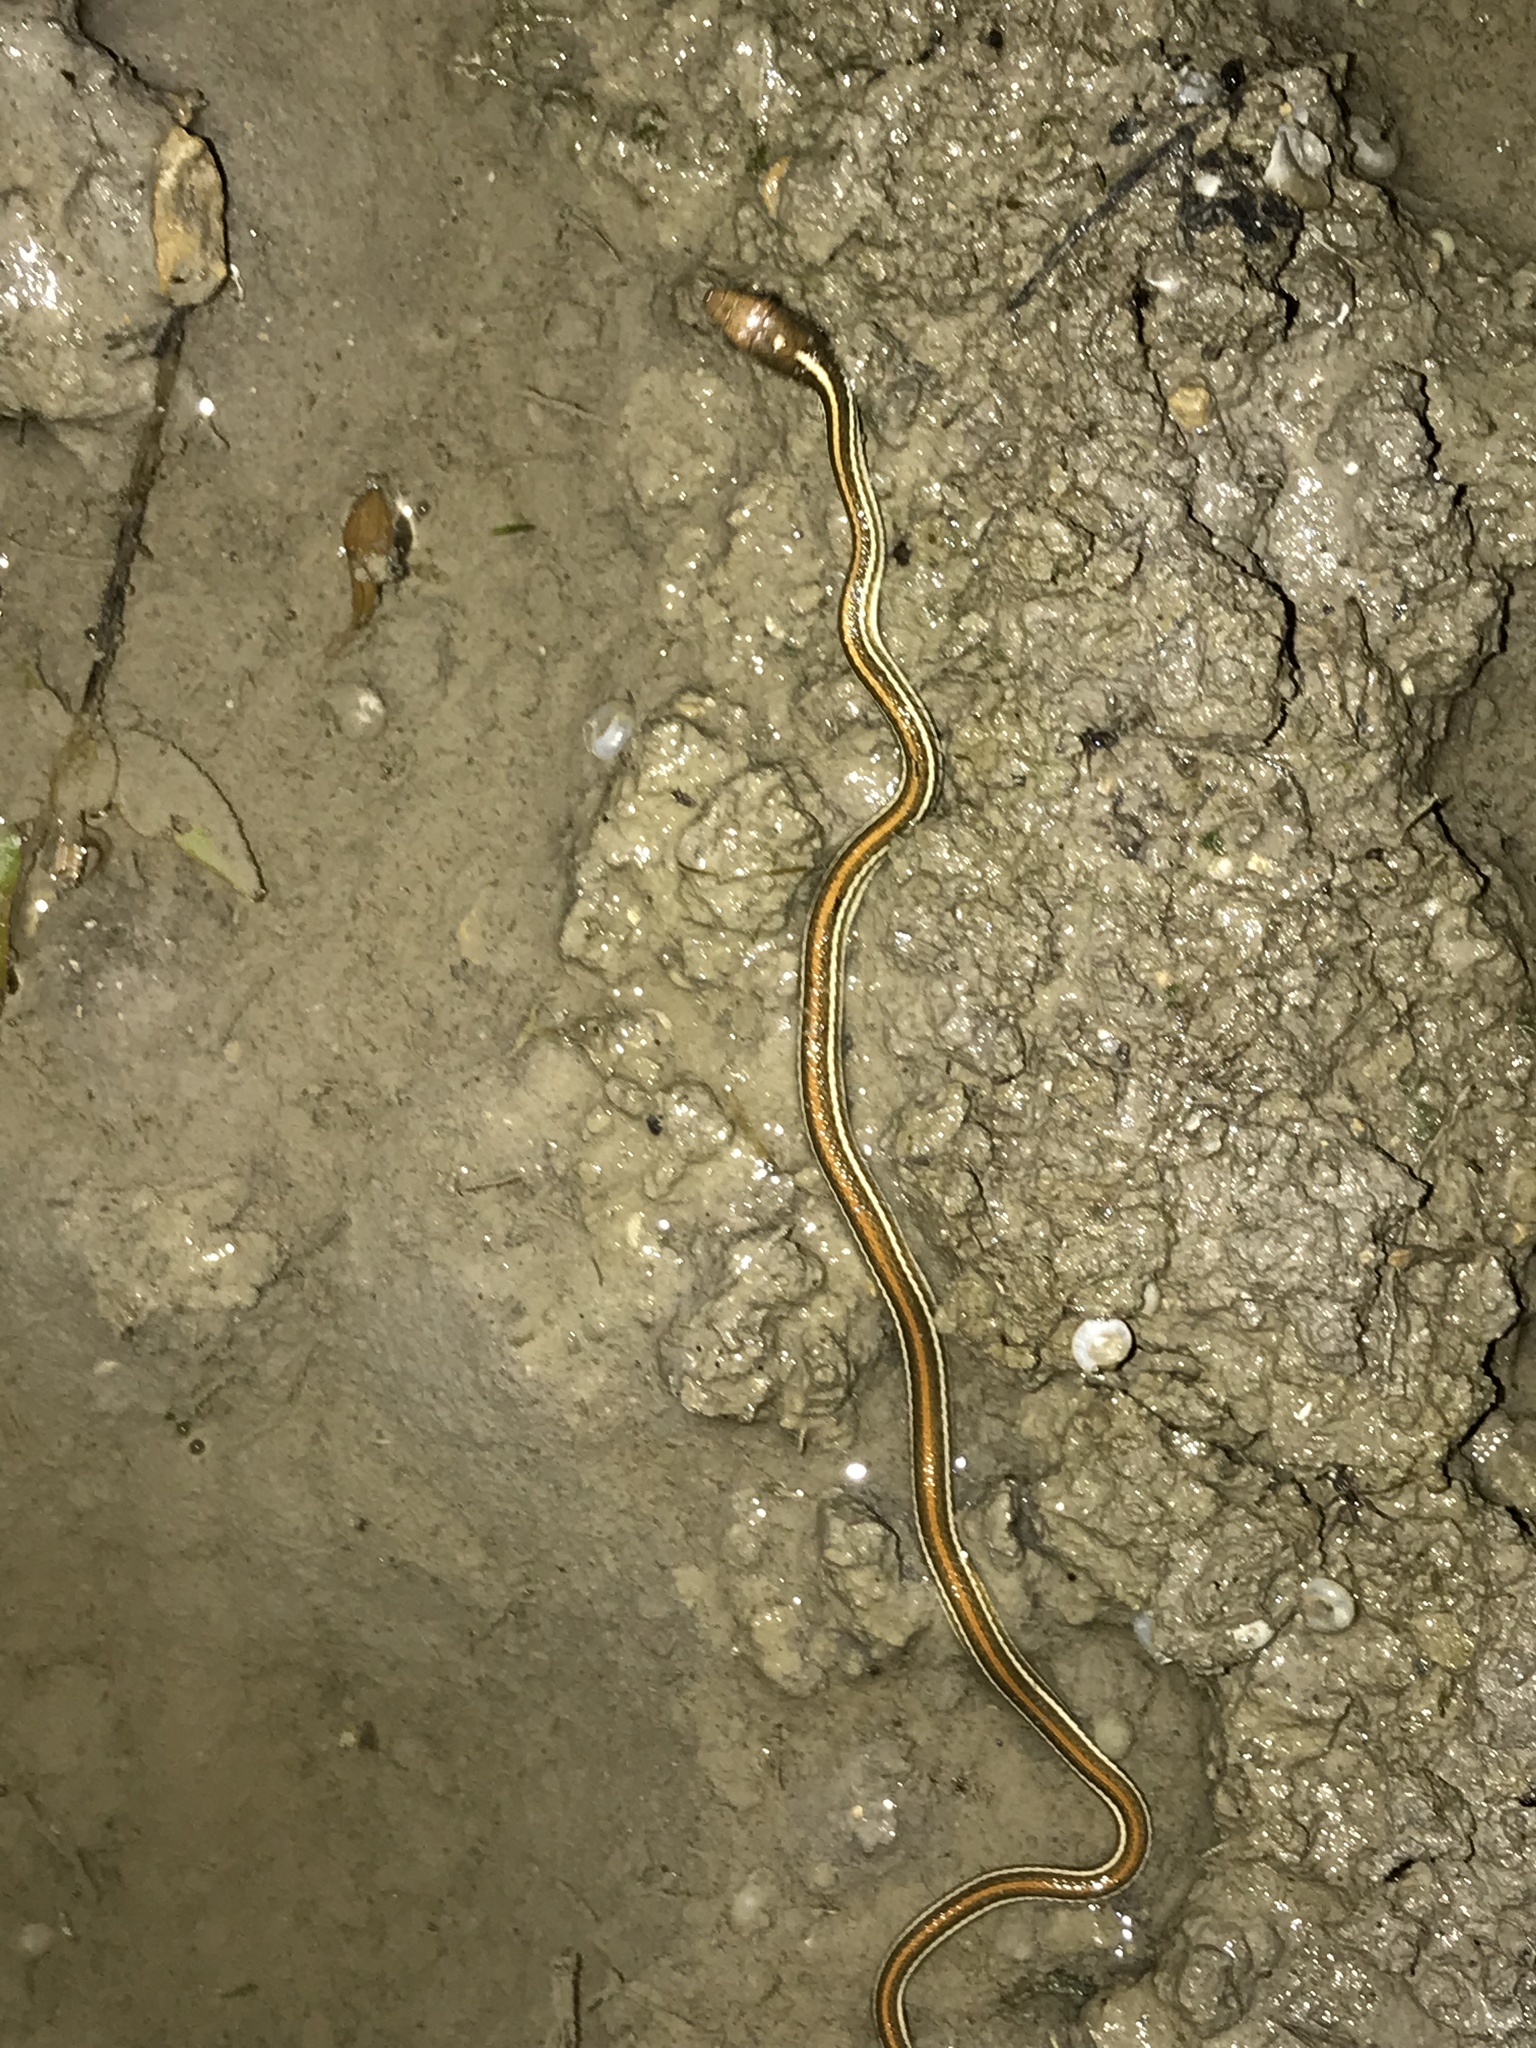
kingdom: Animalia
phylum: Chordata
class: Squamata
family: Colubridae
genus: Thamnophis
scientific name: Thamnophis proximus
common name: Western ribbon snake
